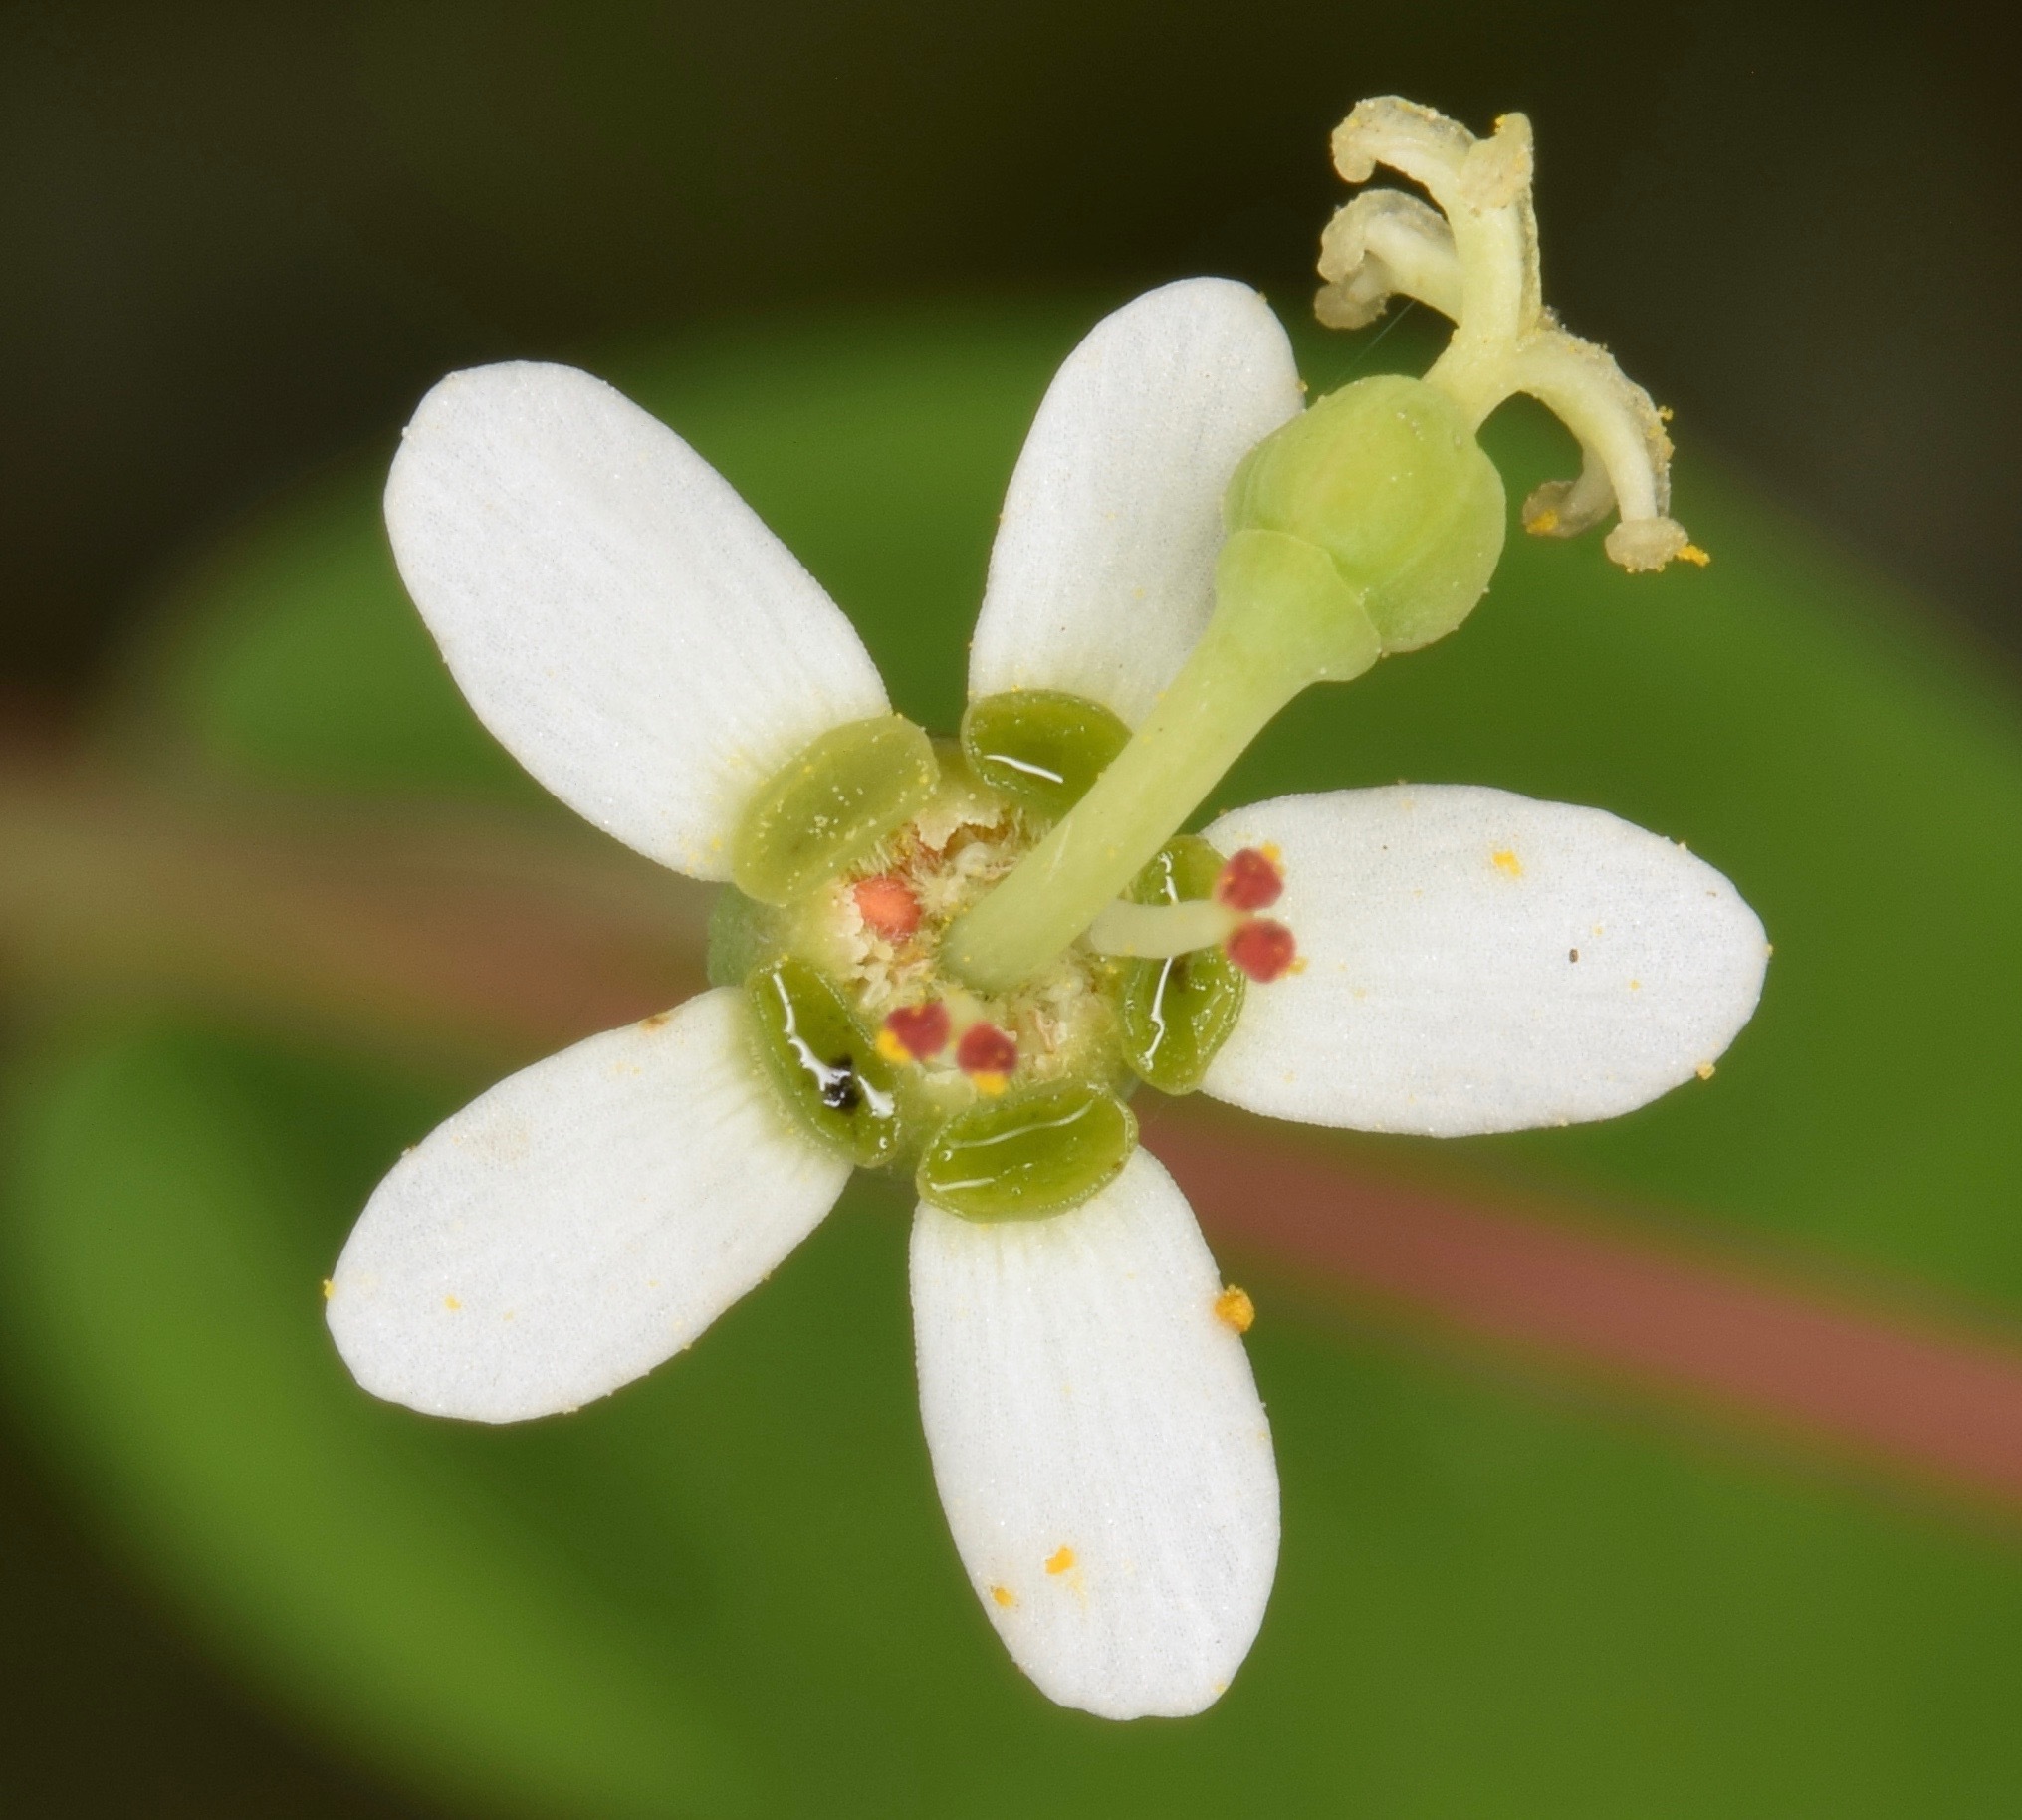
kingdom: Plantae
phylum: Tracheophyta
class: Magnoliopsida
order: Malpighiales
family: Euphorbiaceae
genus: Euphorbia
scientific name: Euphorbia pubentissima
